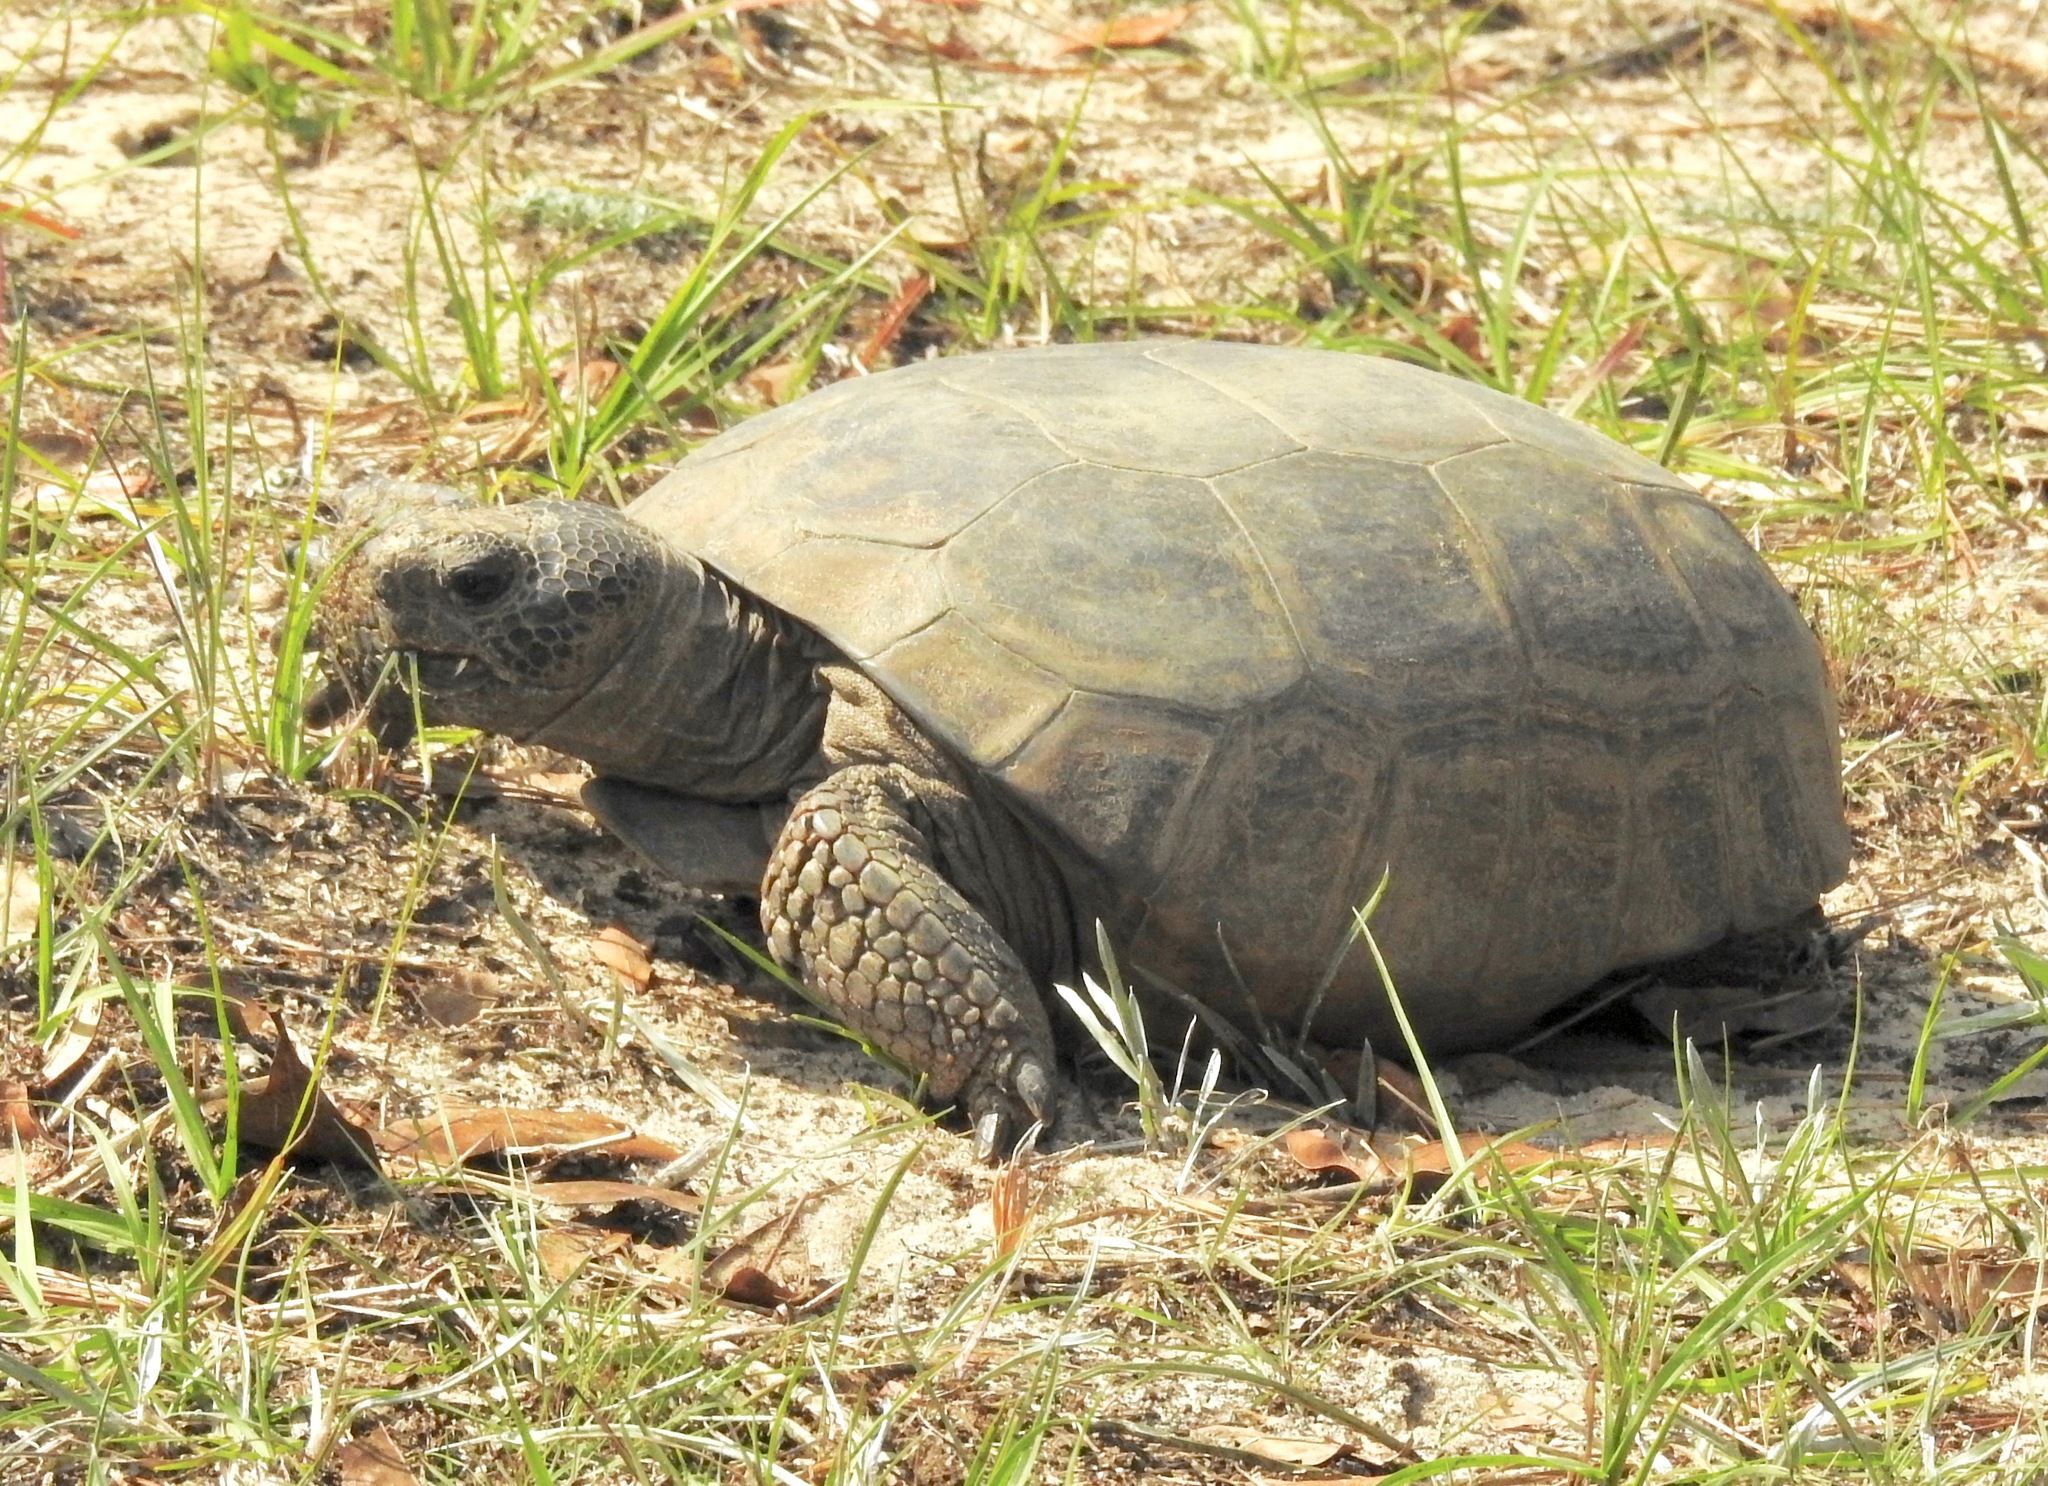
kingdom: Animalia
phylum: Chordata
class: Testudines
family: Testudinidae
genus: Gopherus
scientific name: Gopherus polyphemus
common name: Florida gopher tortoise
